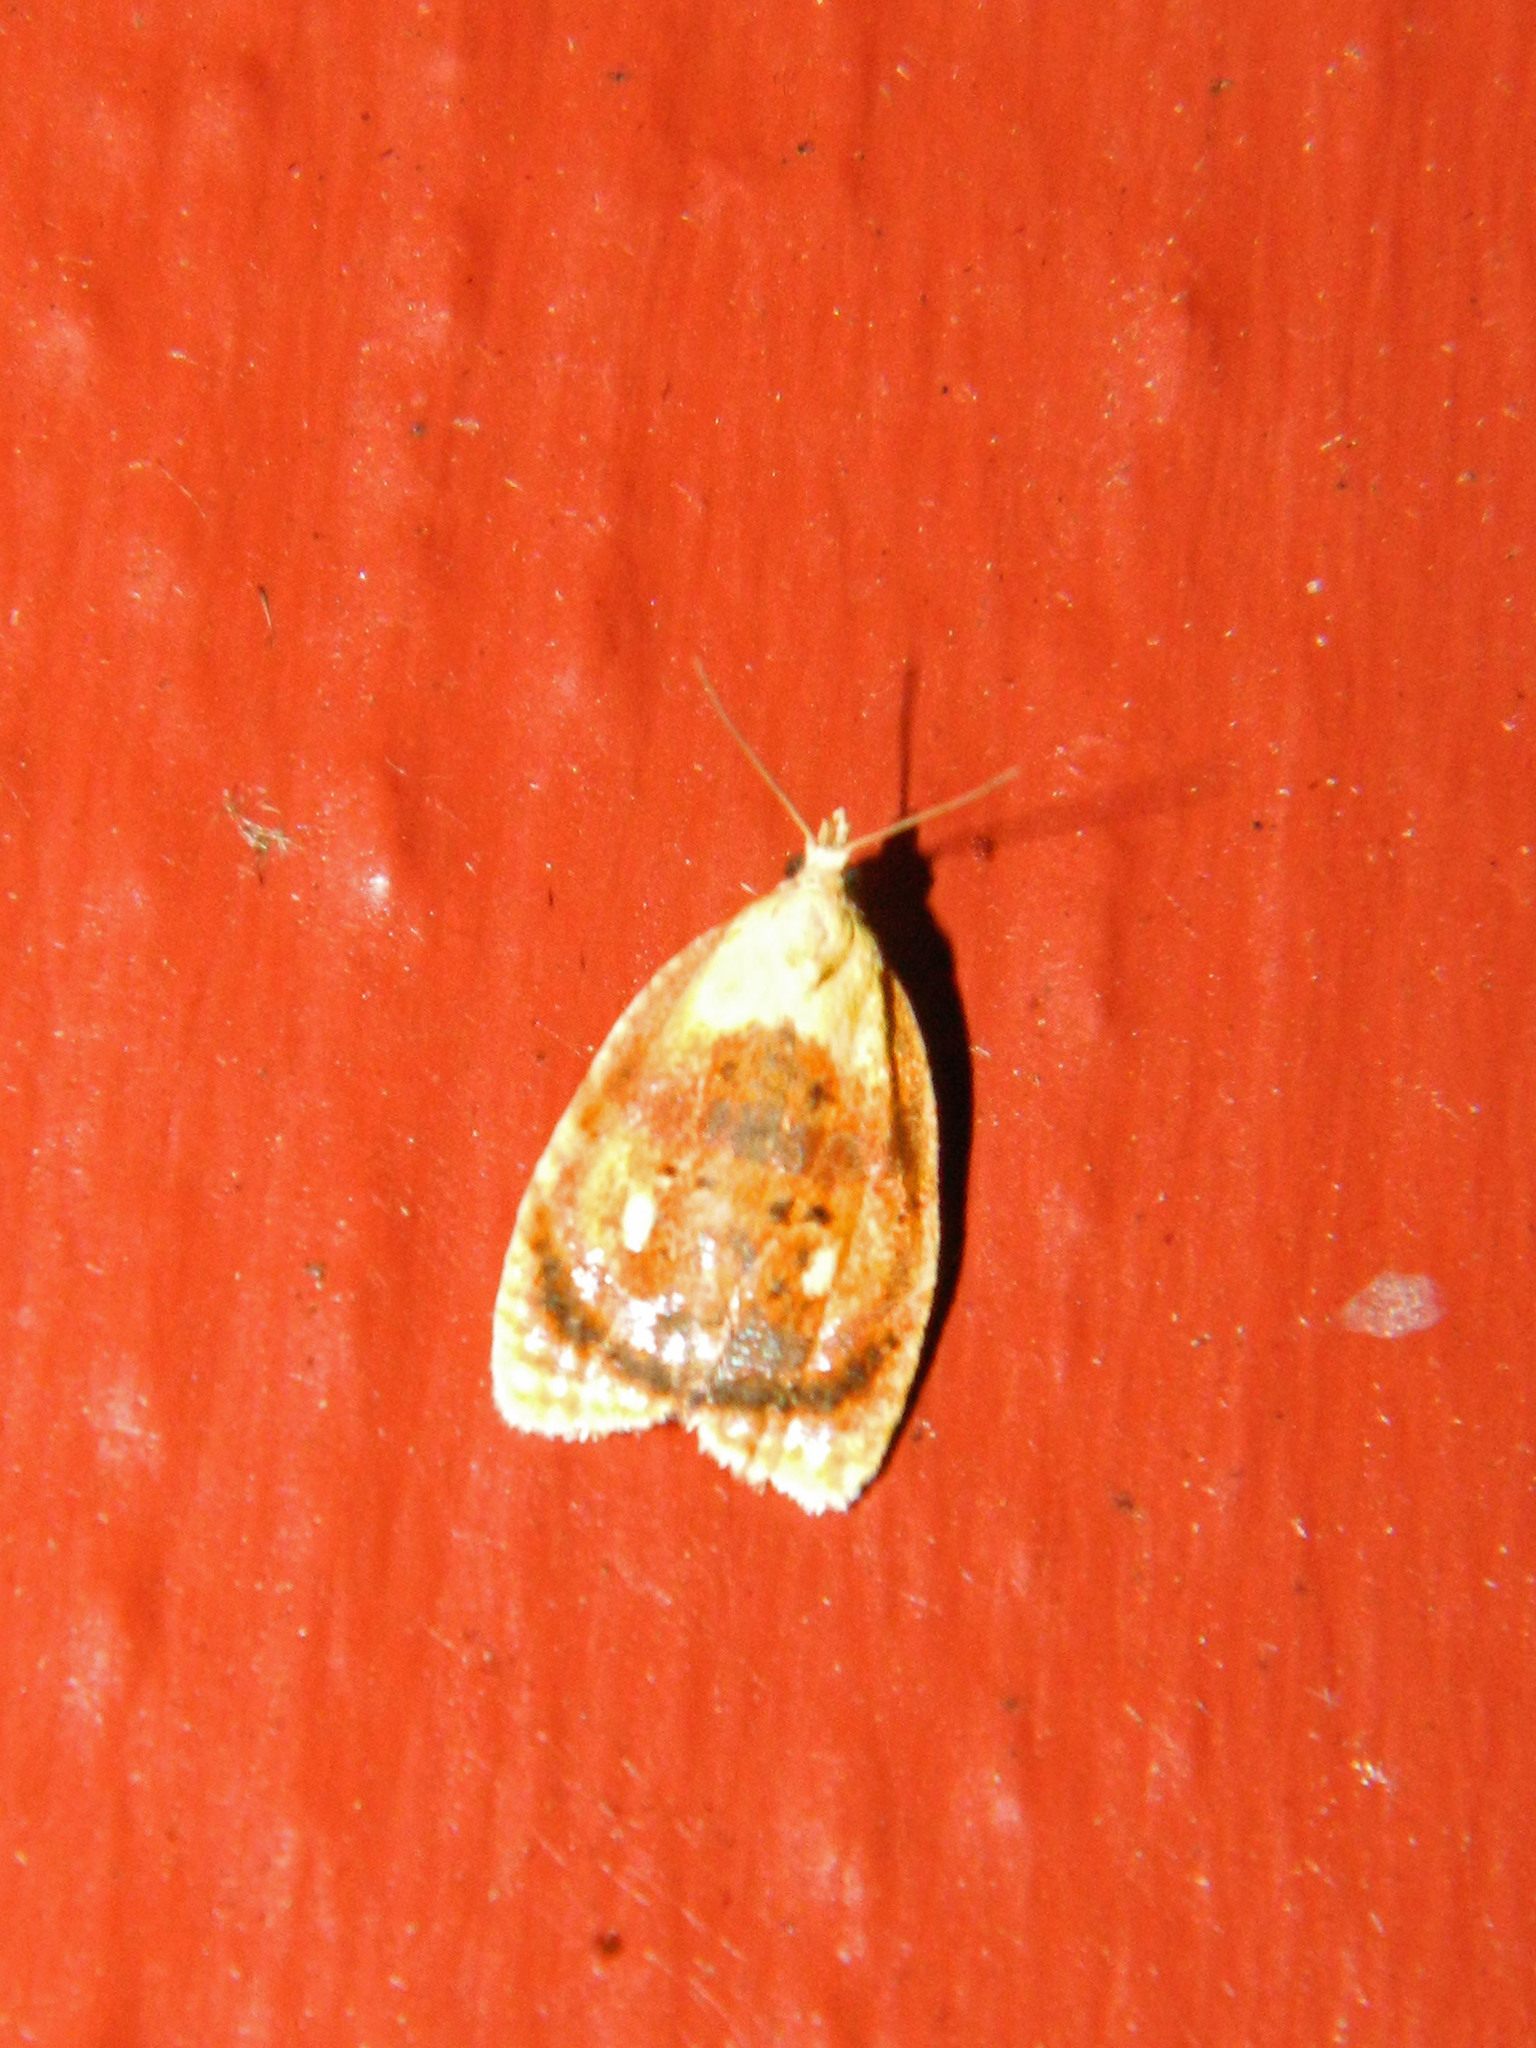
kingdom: Animalia
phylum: Arthropoda
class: Insecta
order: Lepidoptera
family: Tortricidae
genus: Acleris
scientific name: Acleris curvalana
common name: Blueberry leaftier moth
